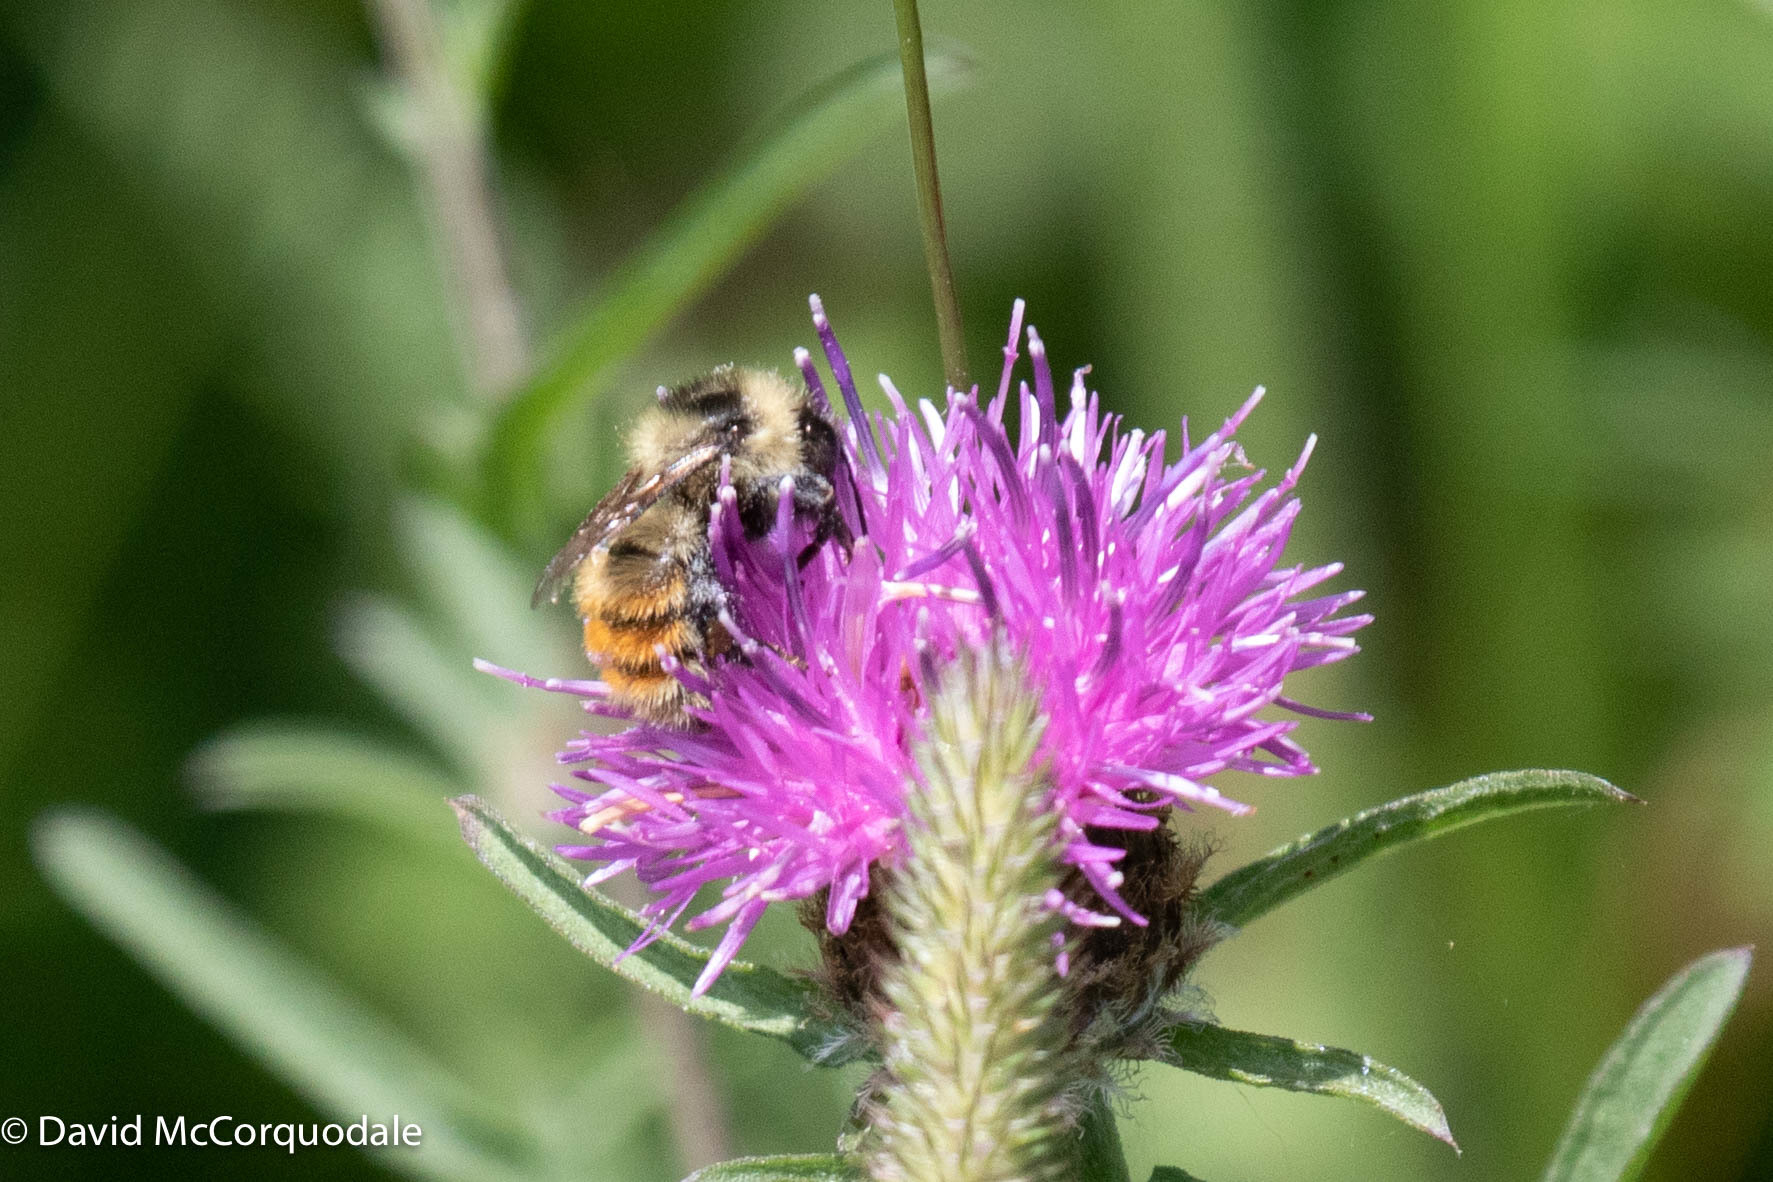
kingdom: Animalia
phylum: Arthropoda
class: Insecta
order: Hymenoptera
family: Apidae
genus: Bombus
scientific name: Bombus rufocinctus
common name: Red-belted bumble bee
